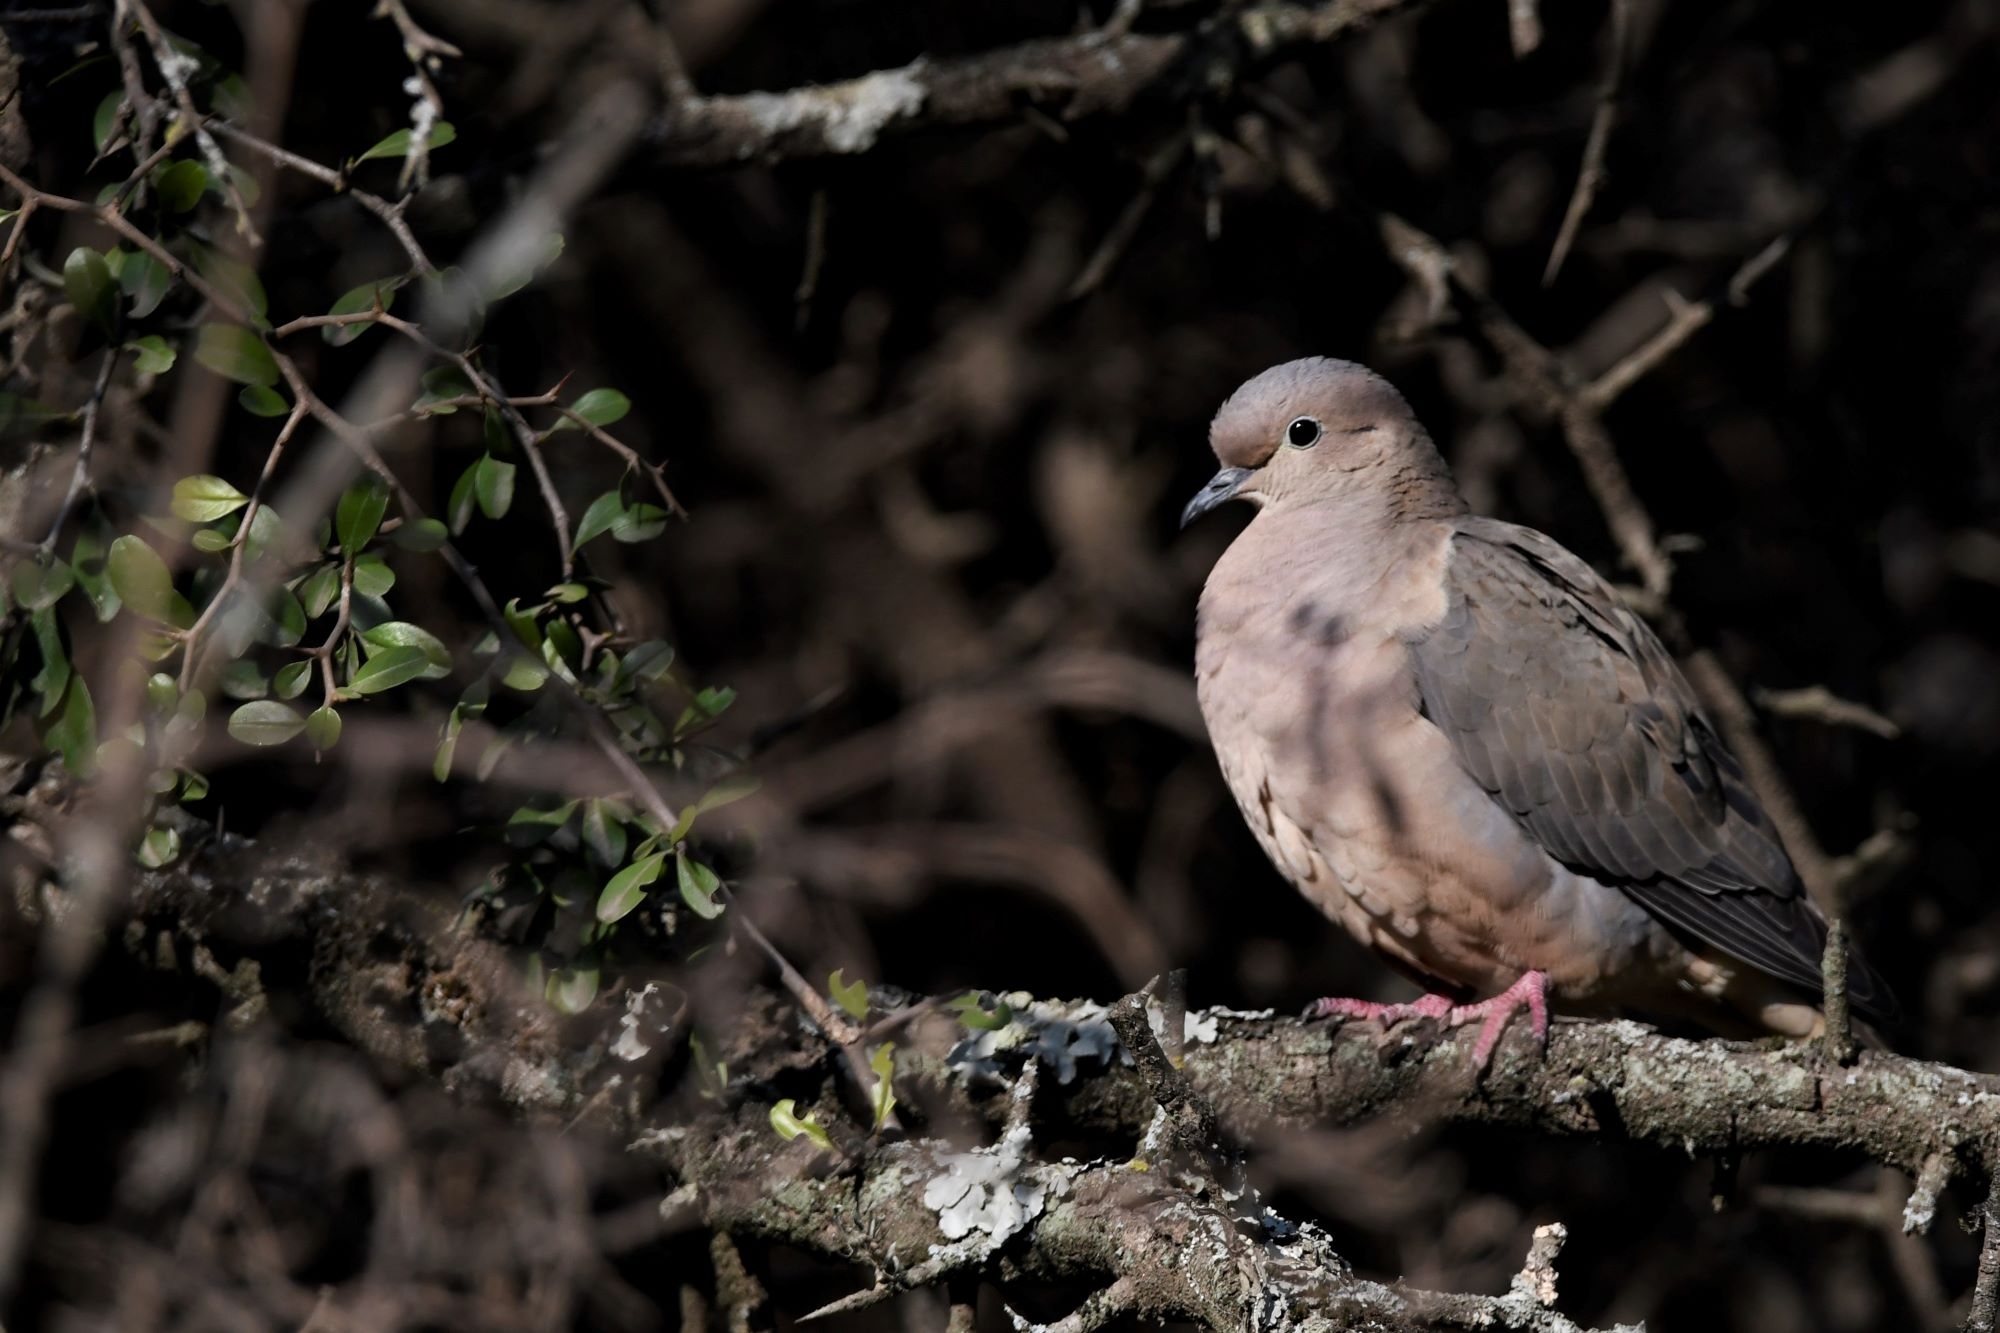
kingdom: Animalia
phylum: Chordata
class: Aves
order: Columbiformes
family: Columbidae
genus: Zenaida
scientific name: Zenaida auriculata
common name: Eared dove
